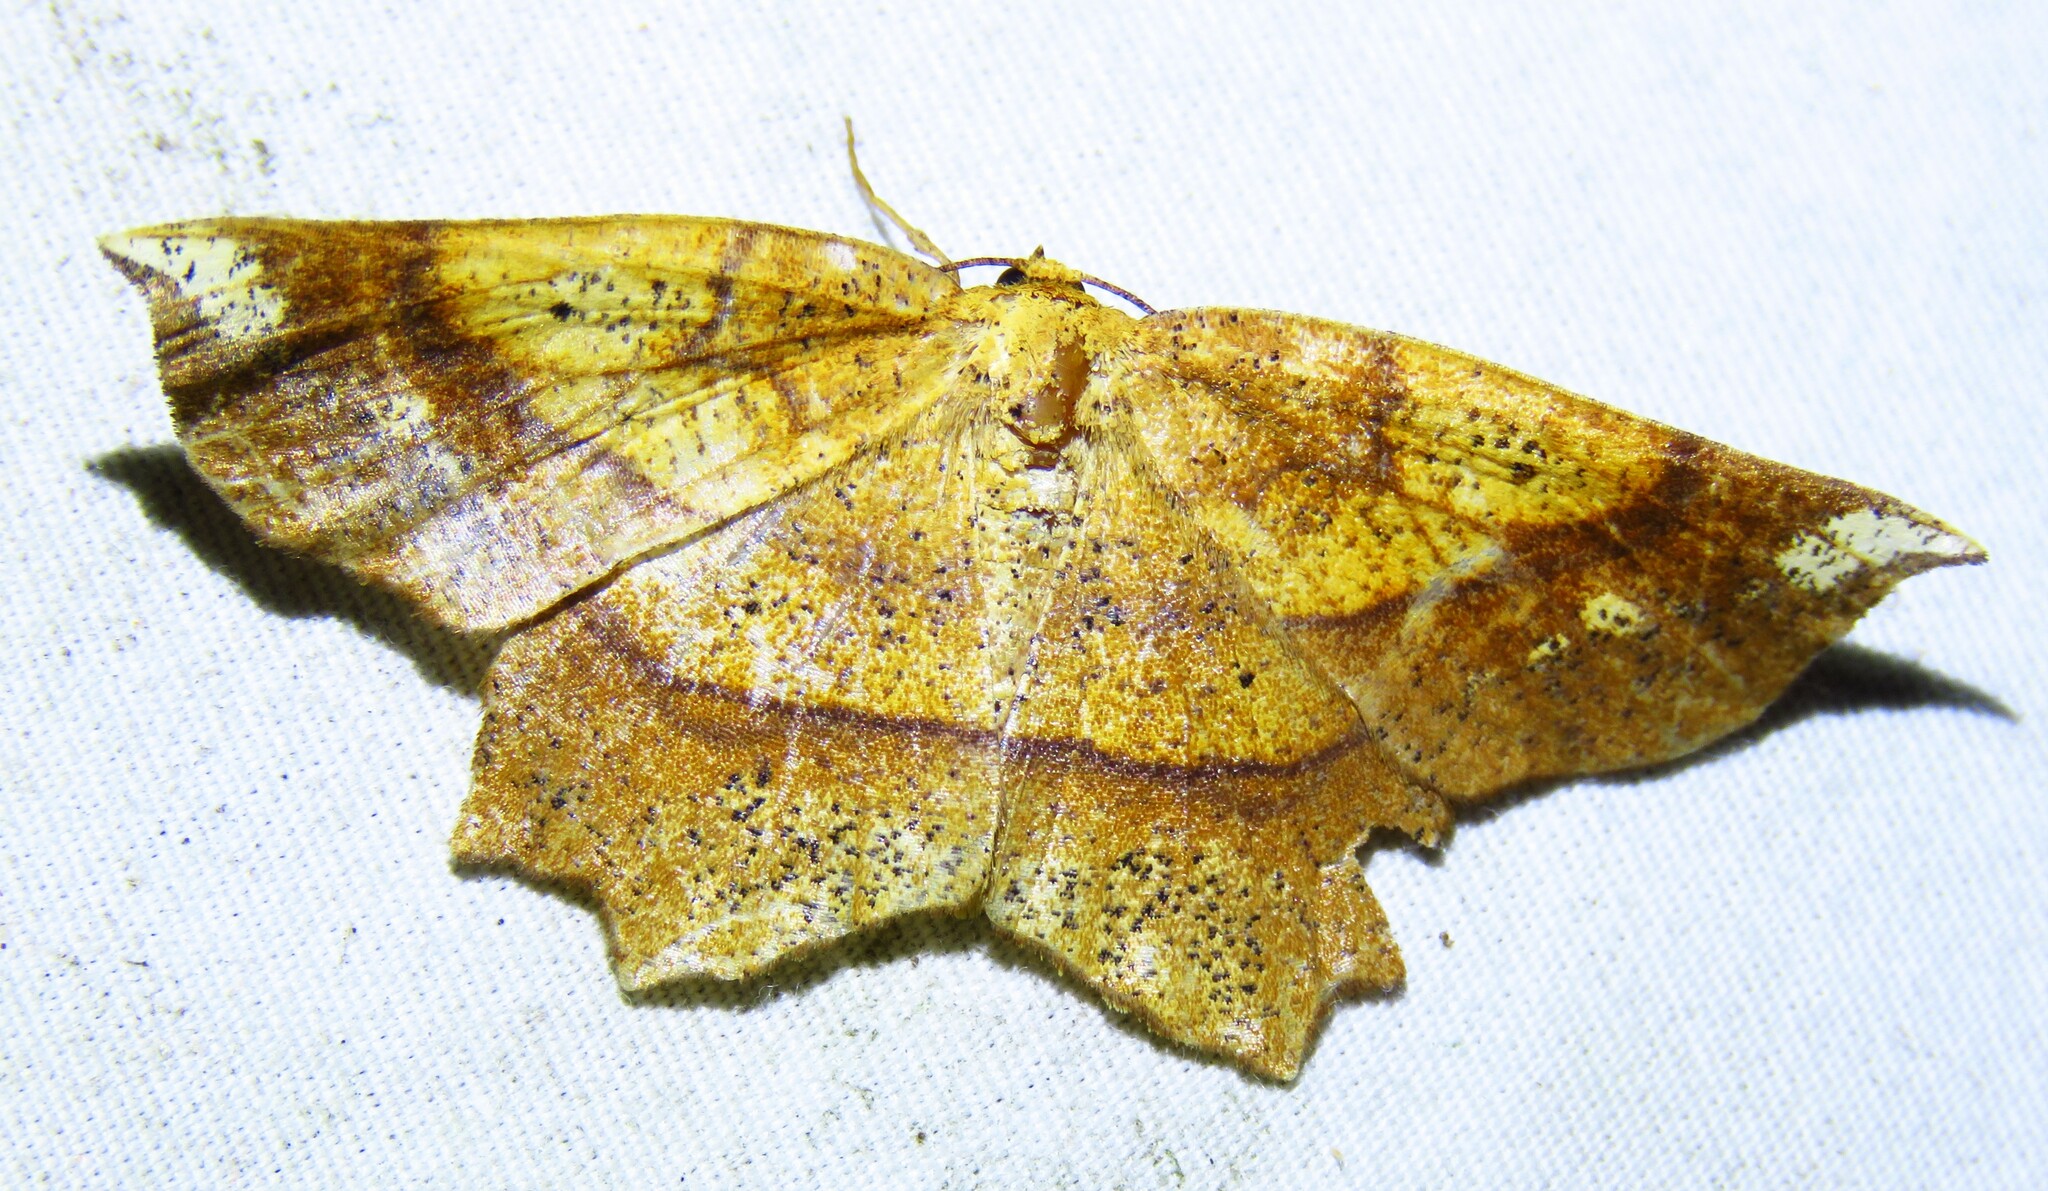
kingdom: Animalia
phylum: Arthropoda
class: Insecta
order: Lepidoptera
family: Geometridae
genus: Euchlaena
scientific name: Euchlaena amoenaria
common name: Deep yellow euchlaena
